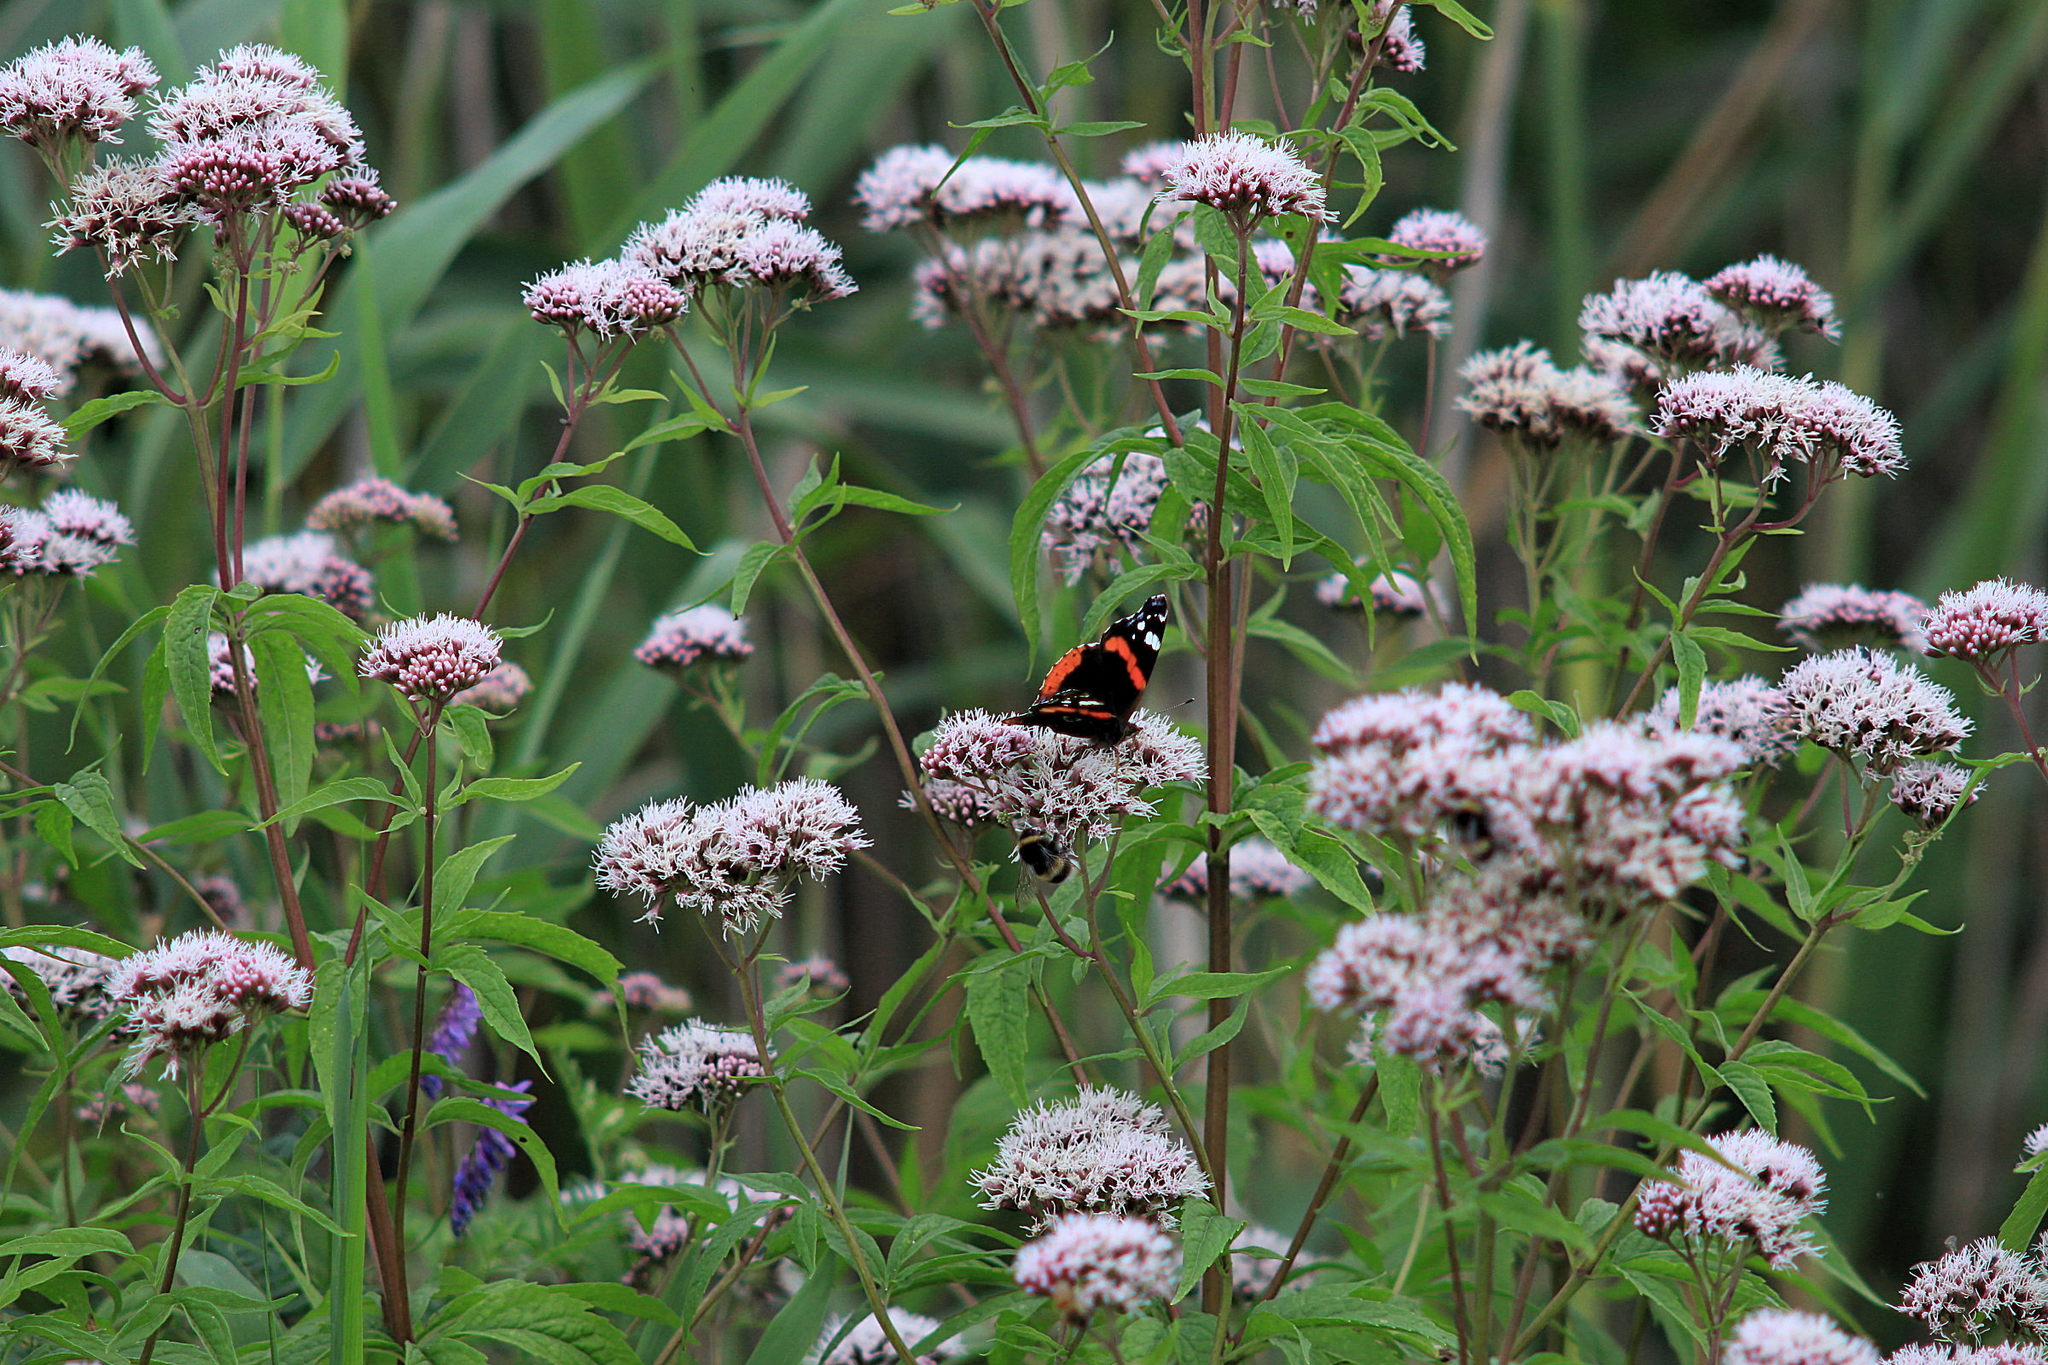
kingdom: Animalia
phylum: Arthropoda
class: Insecta
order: Lepidoptera
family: Nymphalidae
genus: Vanessa
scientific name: Vanessa atalanta
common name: Red admiral
